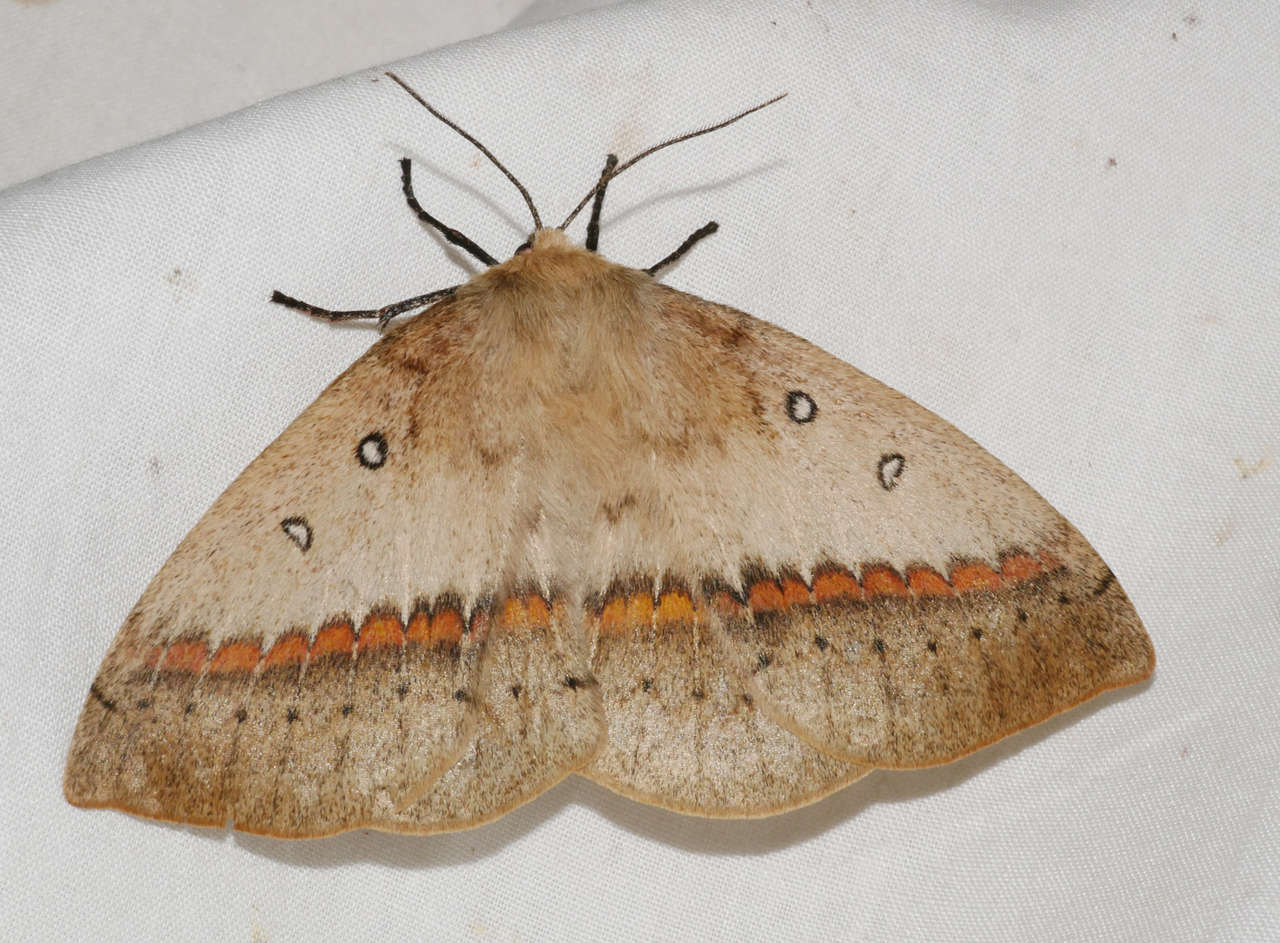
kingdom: Animalia
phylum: Arthropoda
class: Insecta
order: Lepidoptera
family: Anthelidae
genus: Anthela
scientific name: Anthela nicothoe
